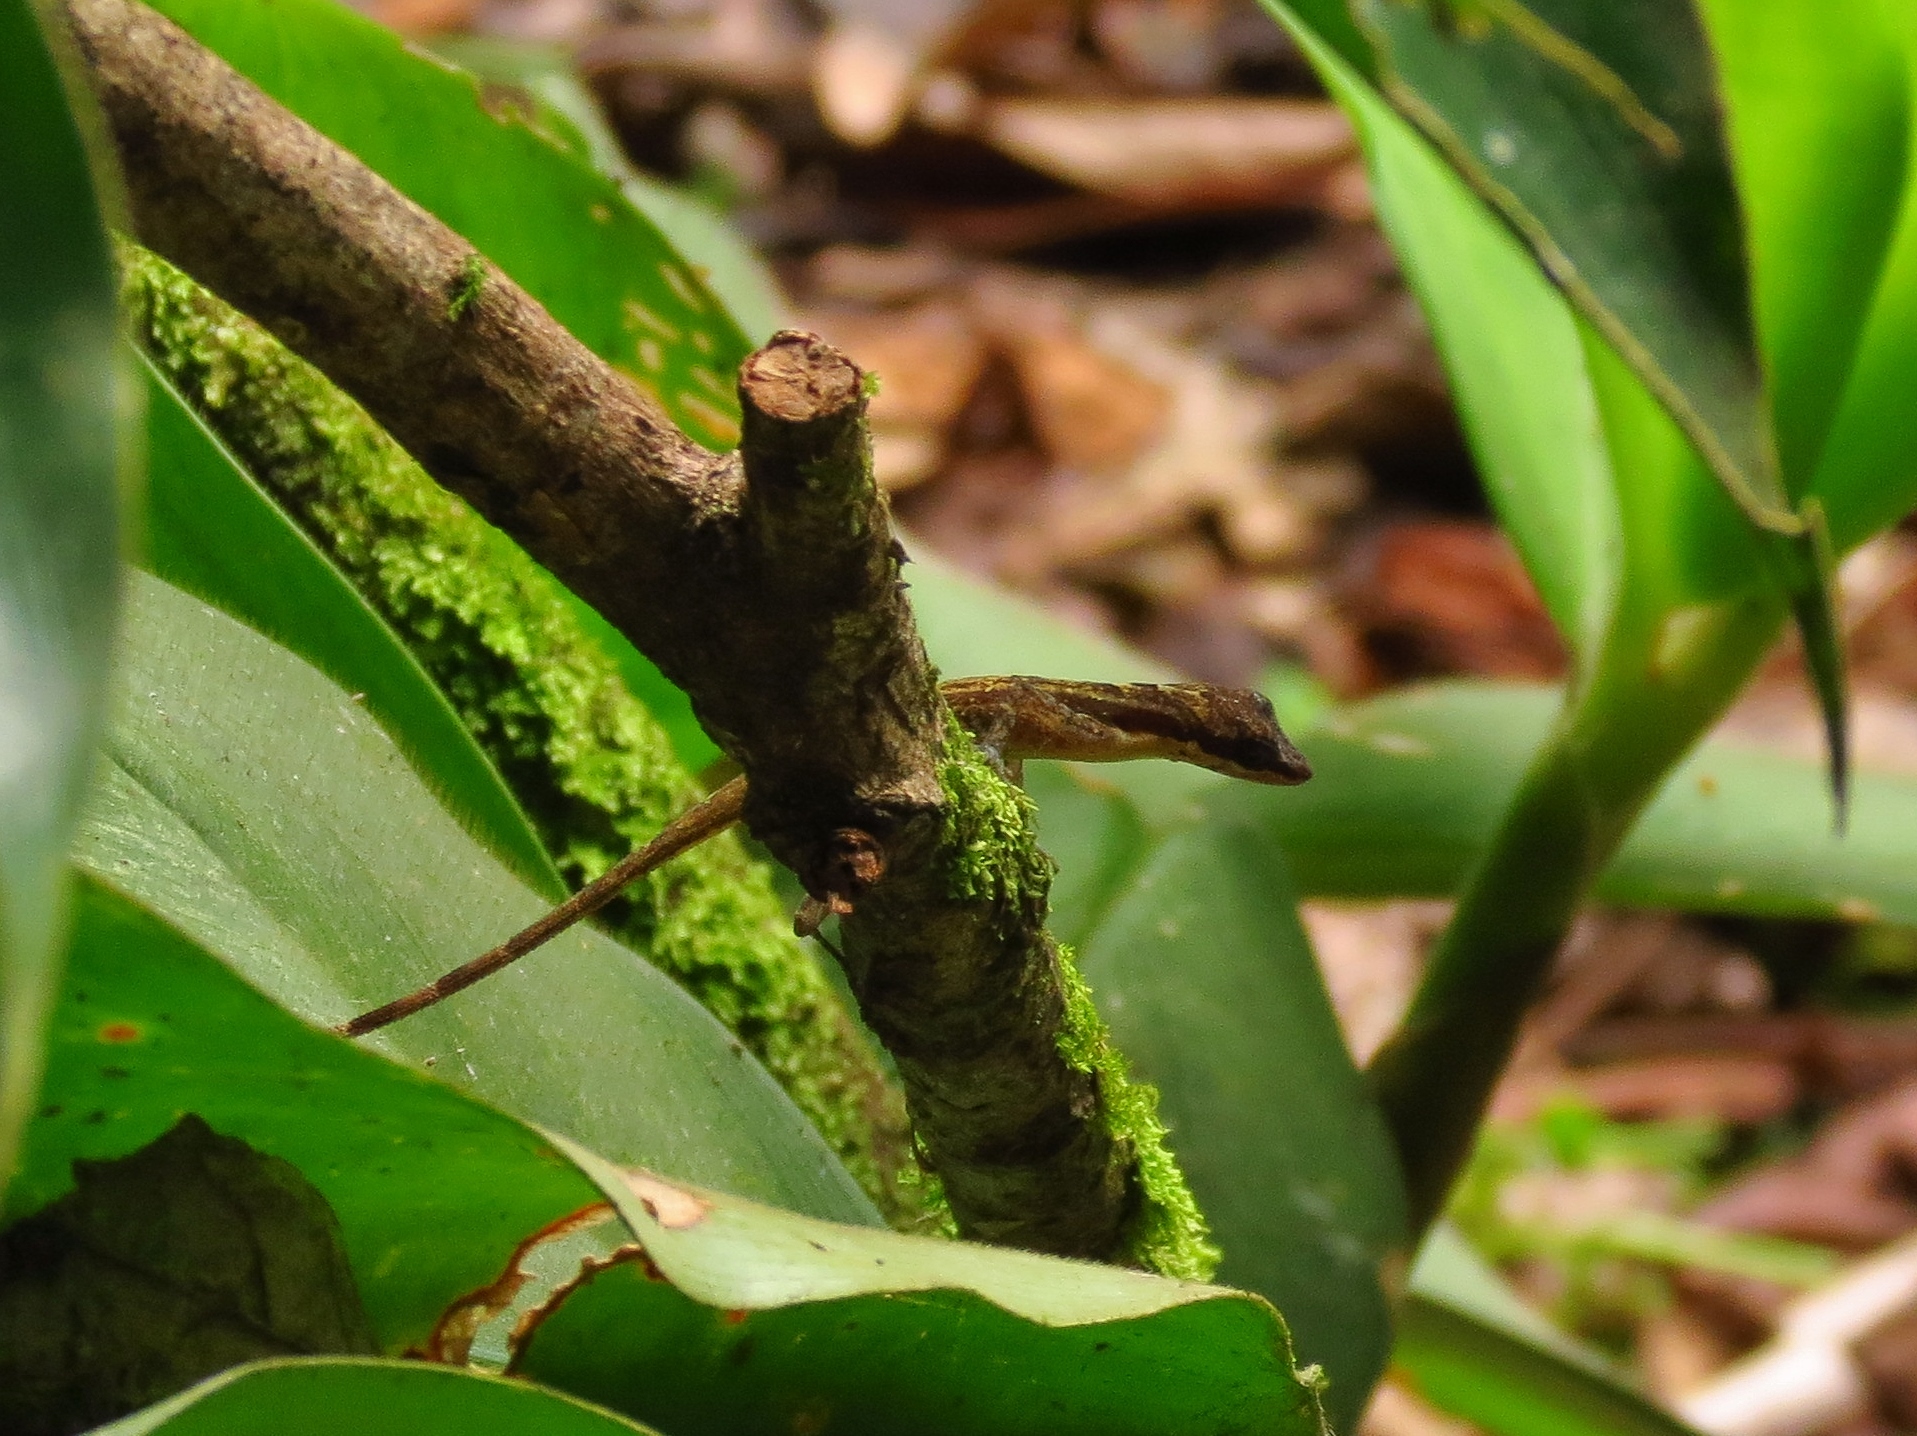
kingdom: Animalia
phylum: Chordata
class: Squamata
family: Dactyloidae
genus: Anolis
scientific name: Anolis limifrons
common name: Border anole
